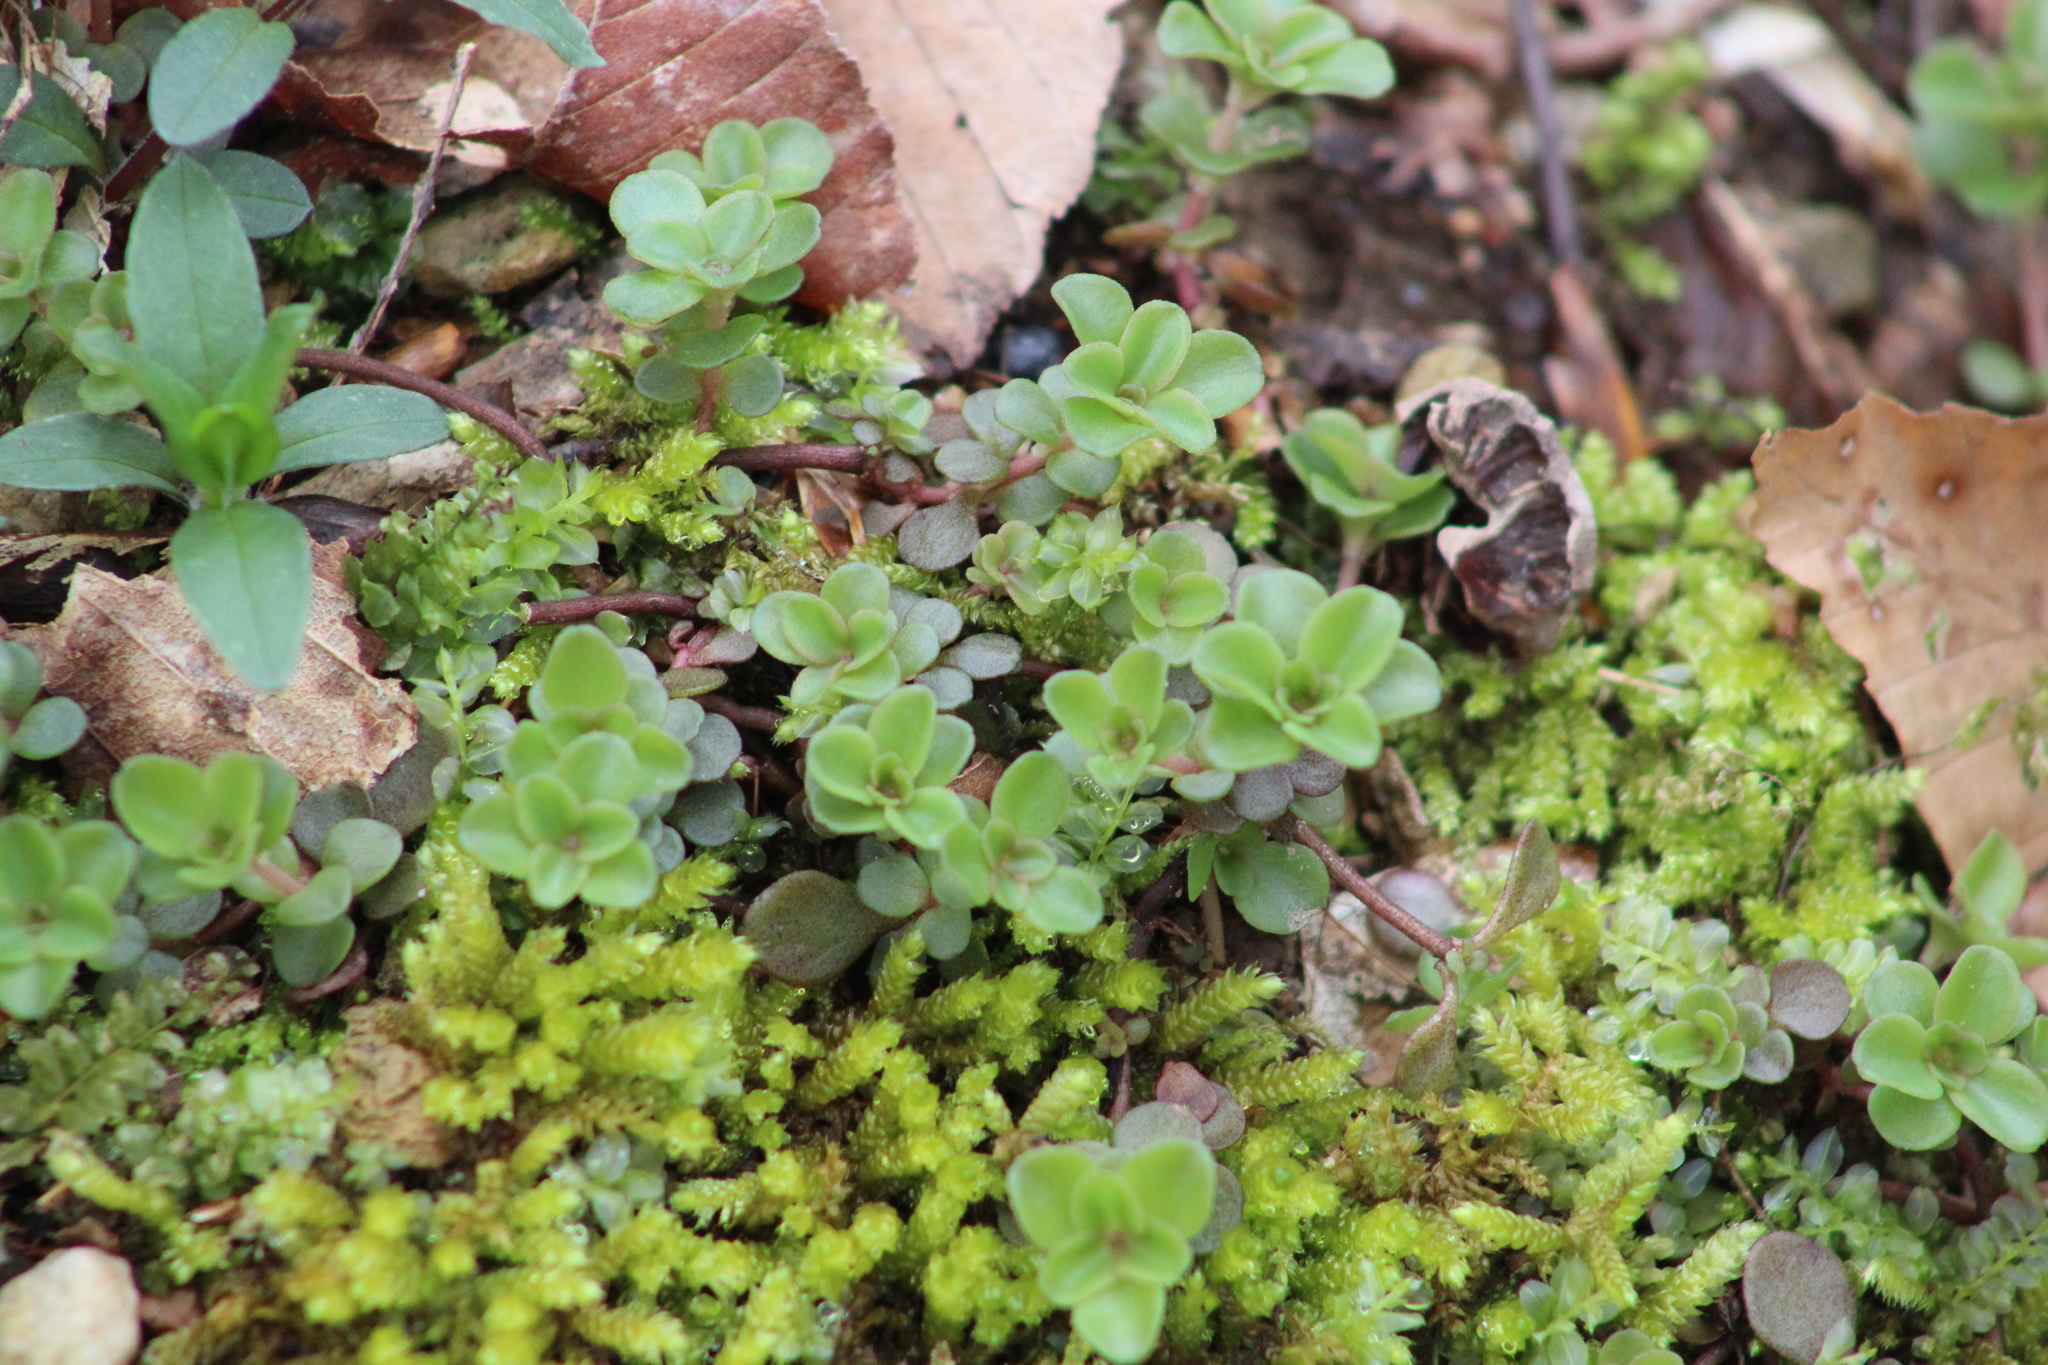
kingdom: Plantae
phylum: Tracheophyta
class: Magnoliopsida
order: Saxifragales
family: Crassulaceae
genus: Sedum
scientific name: Sedum ternatum
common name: Wild stonecrop
